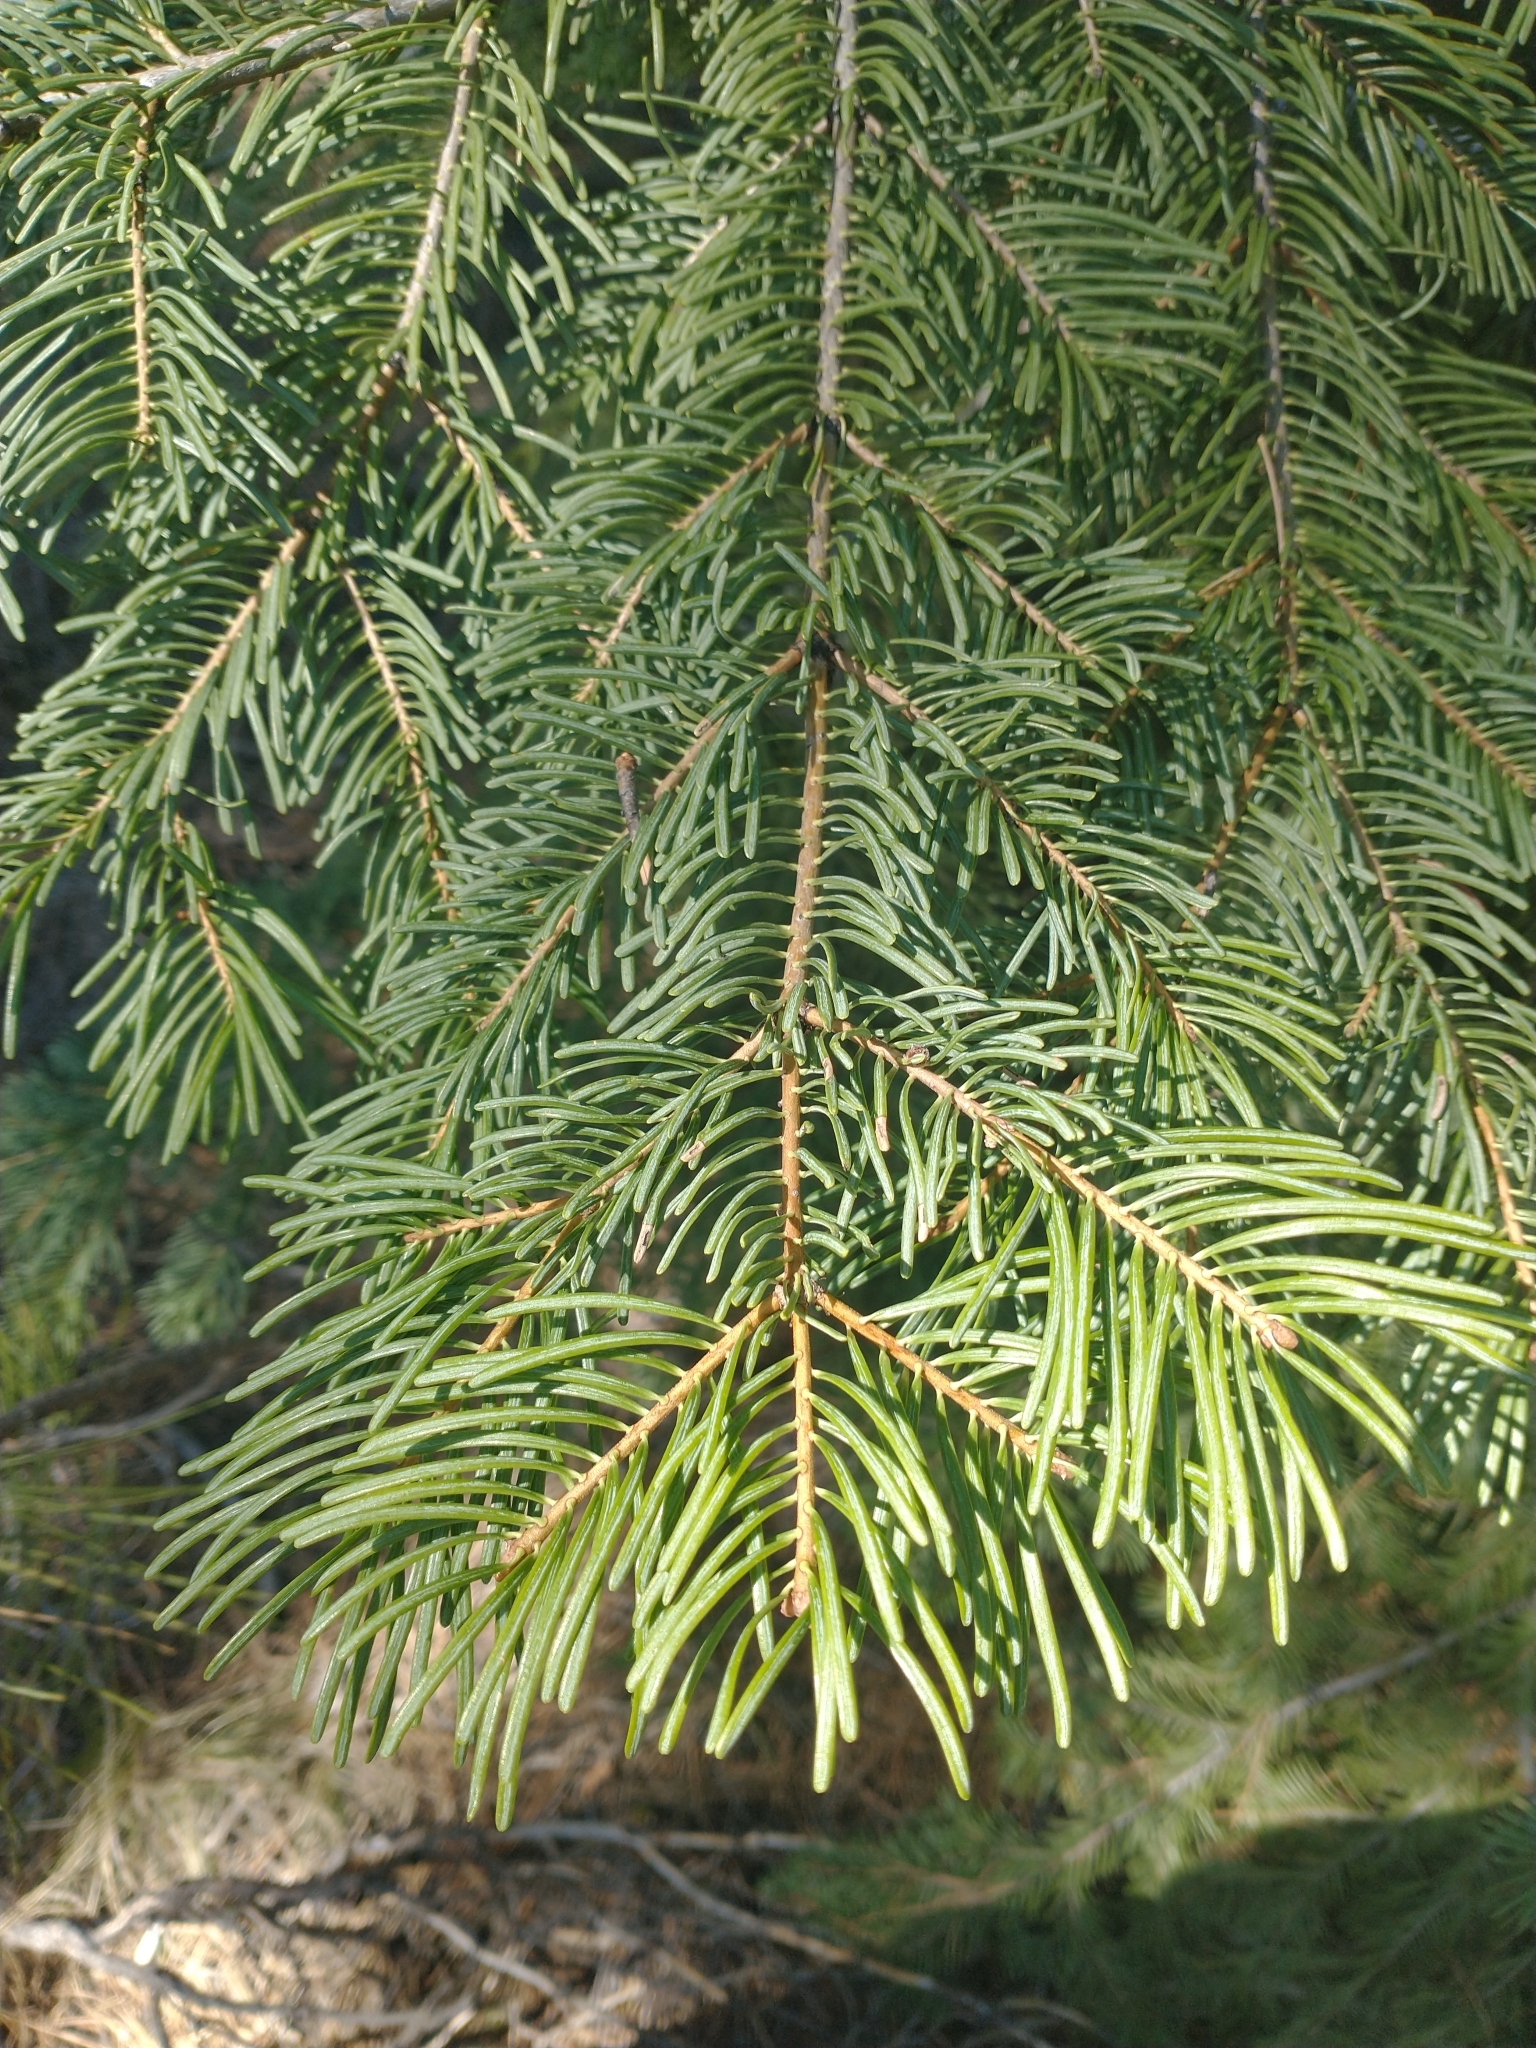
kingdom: Plantae
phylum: Tracheophyta
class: Pinopsida
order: Pinales
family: Pinaceae
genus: Abies
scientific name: Abies concolor
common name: Colorado fir
